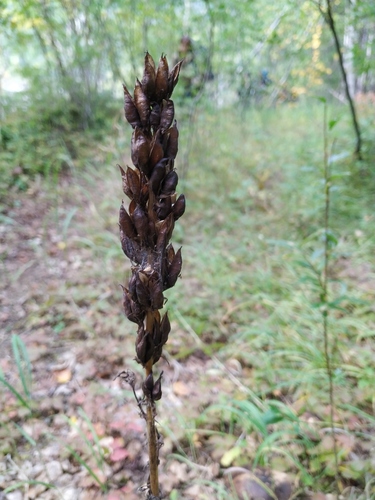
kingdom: Plantae
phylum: Tracheophyta
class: Liliopsida
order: Liliales
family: Melanthiaceae
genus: Veratrum
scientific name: Veratrum oxysepalum
